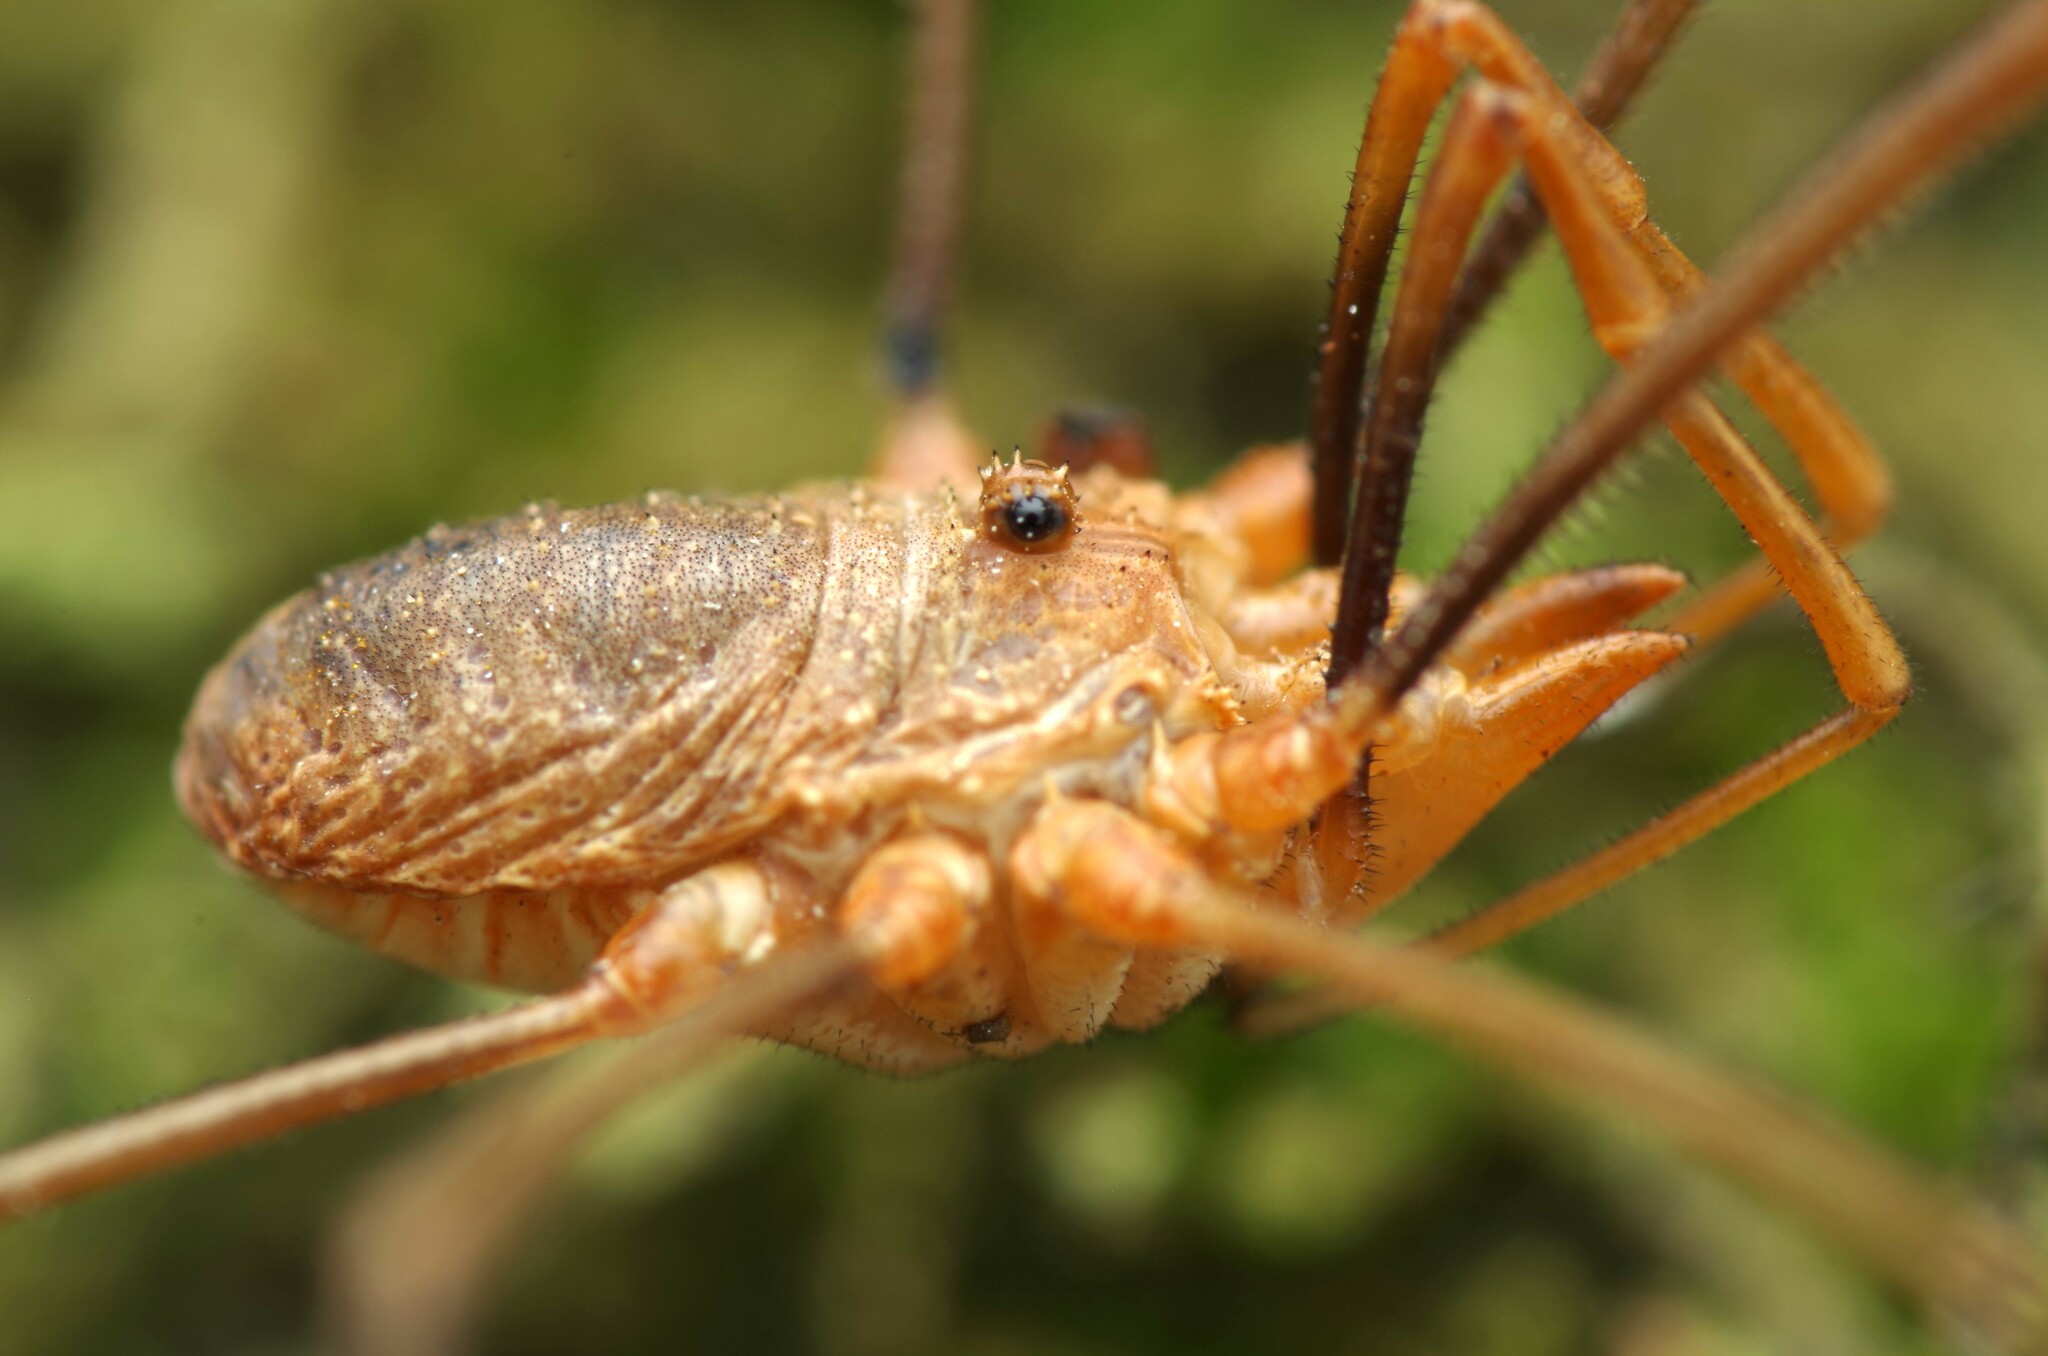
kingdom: Animalia
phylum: Arthropoda
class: Arachnida
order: Opiliones
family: Phalangiidae
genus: Phalangium
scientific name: Phalangium opilio
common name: Daddy longleg
